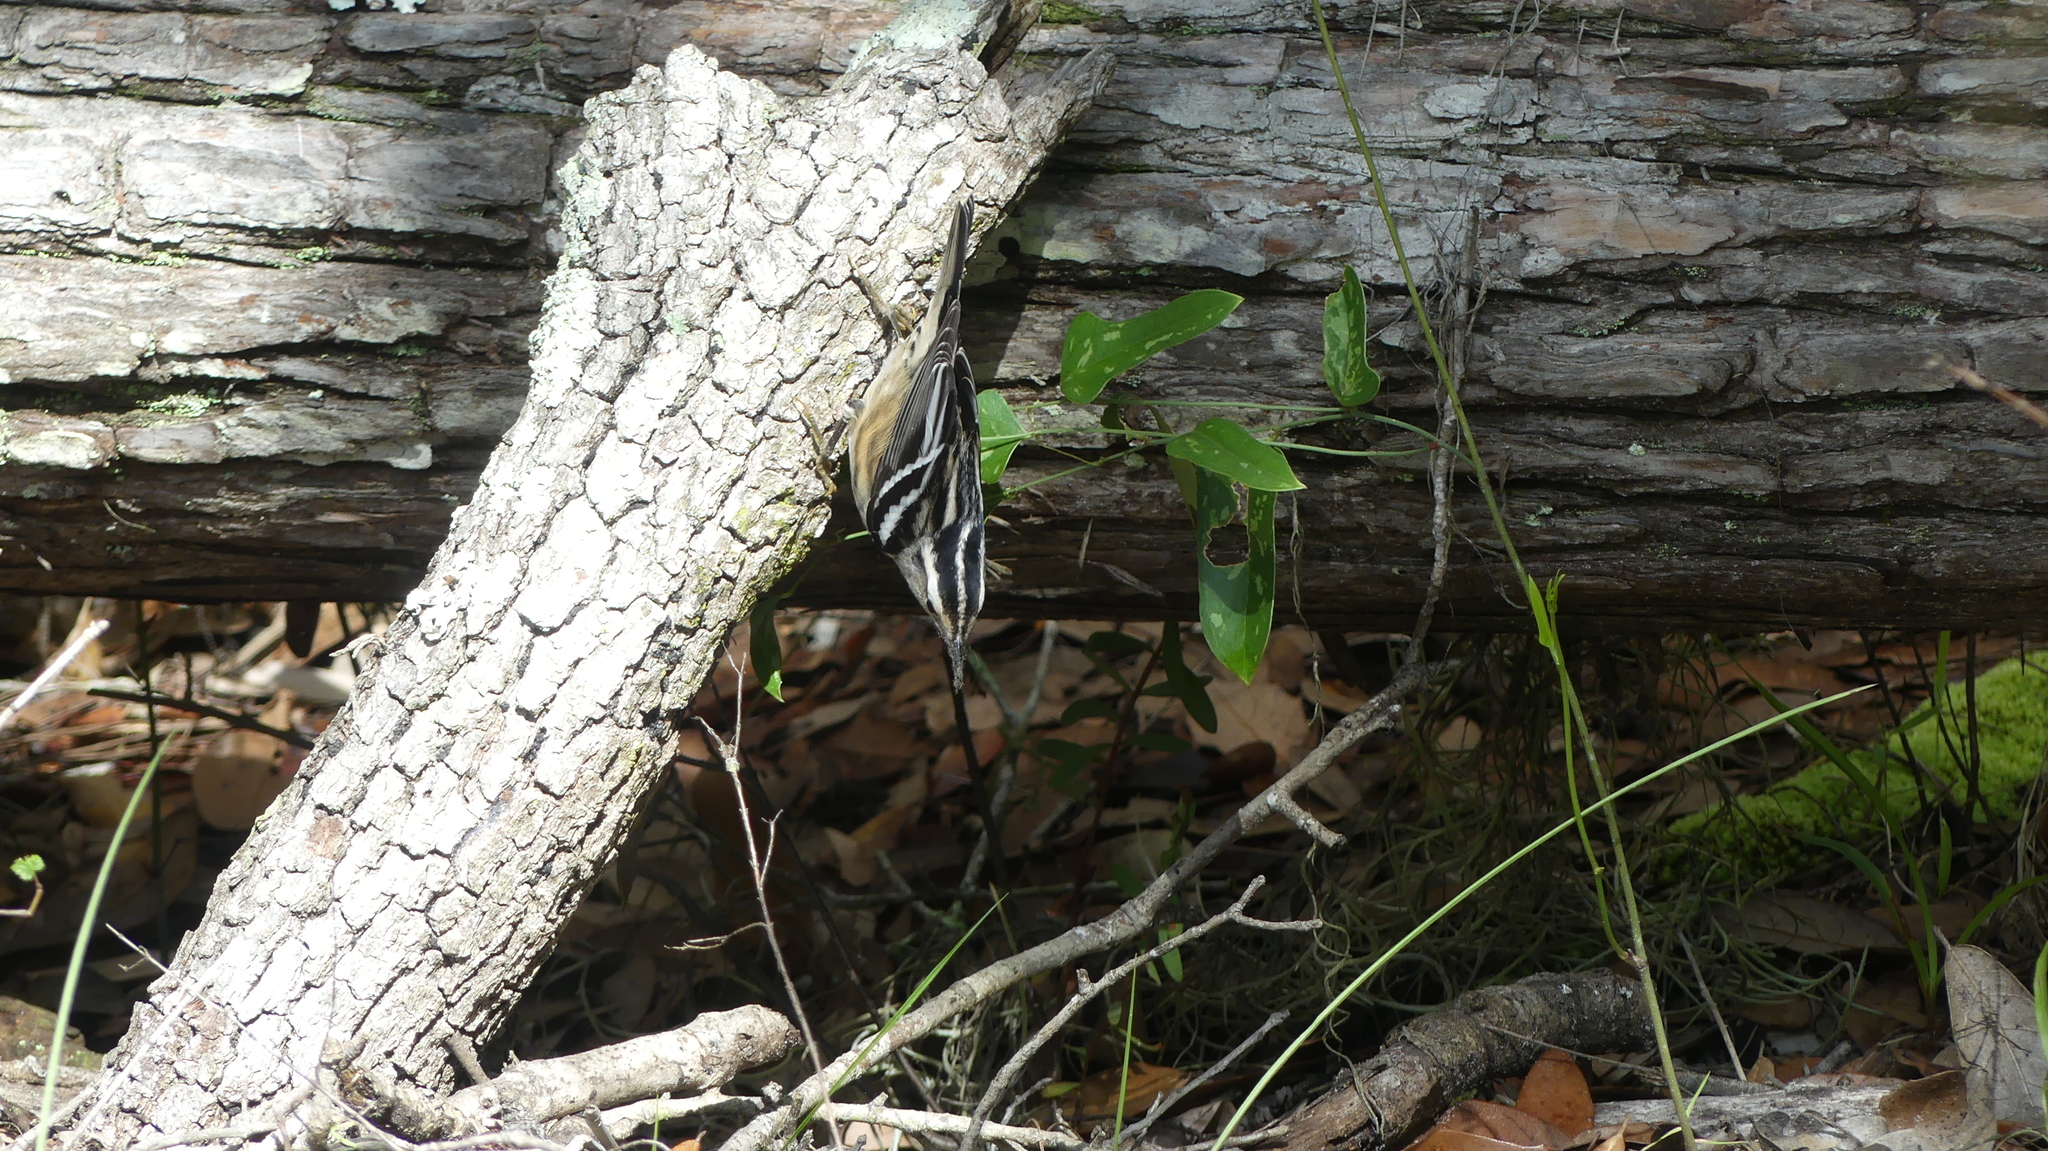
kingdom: Animalia
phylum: Chordata
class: Aves
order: Passeriformes
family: Parulidae
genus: Mniotilta
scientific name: Mniotilta varia
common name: Black-and-white warbler
